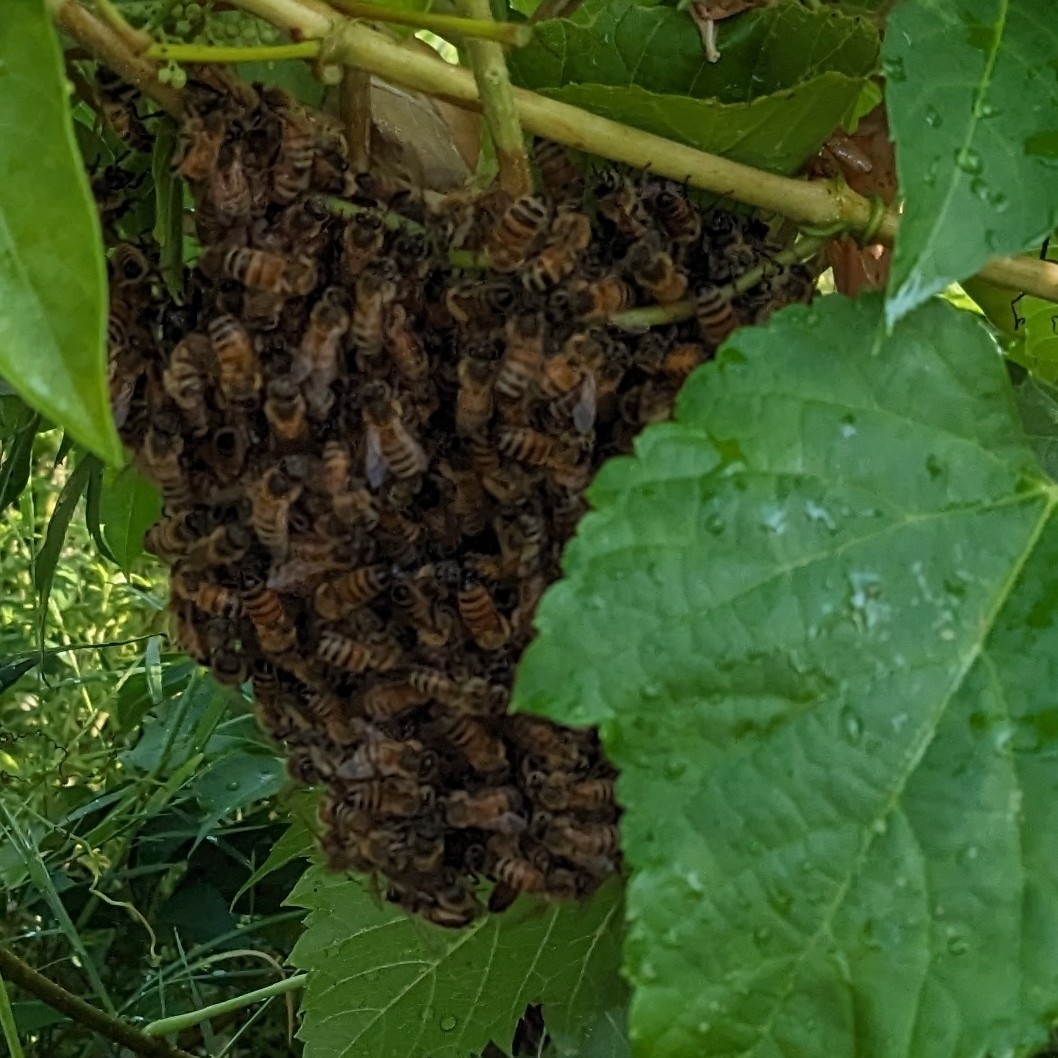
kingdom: Animalia
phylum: Arthropoda
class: Insecta
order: Hymenoptera
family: Apidae
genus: Apis
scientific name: Apis mellifera
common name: Honey bee
